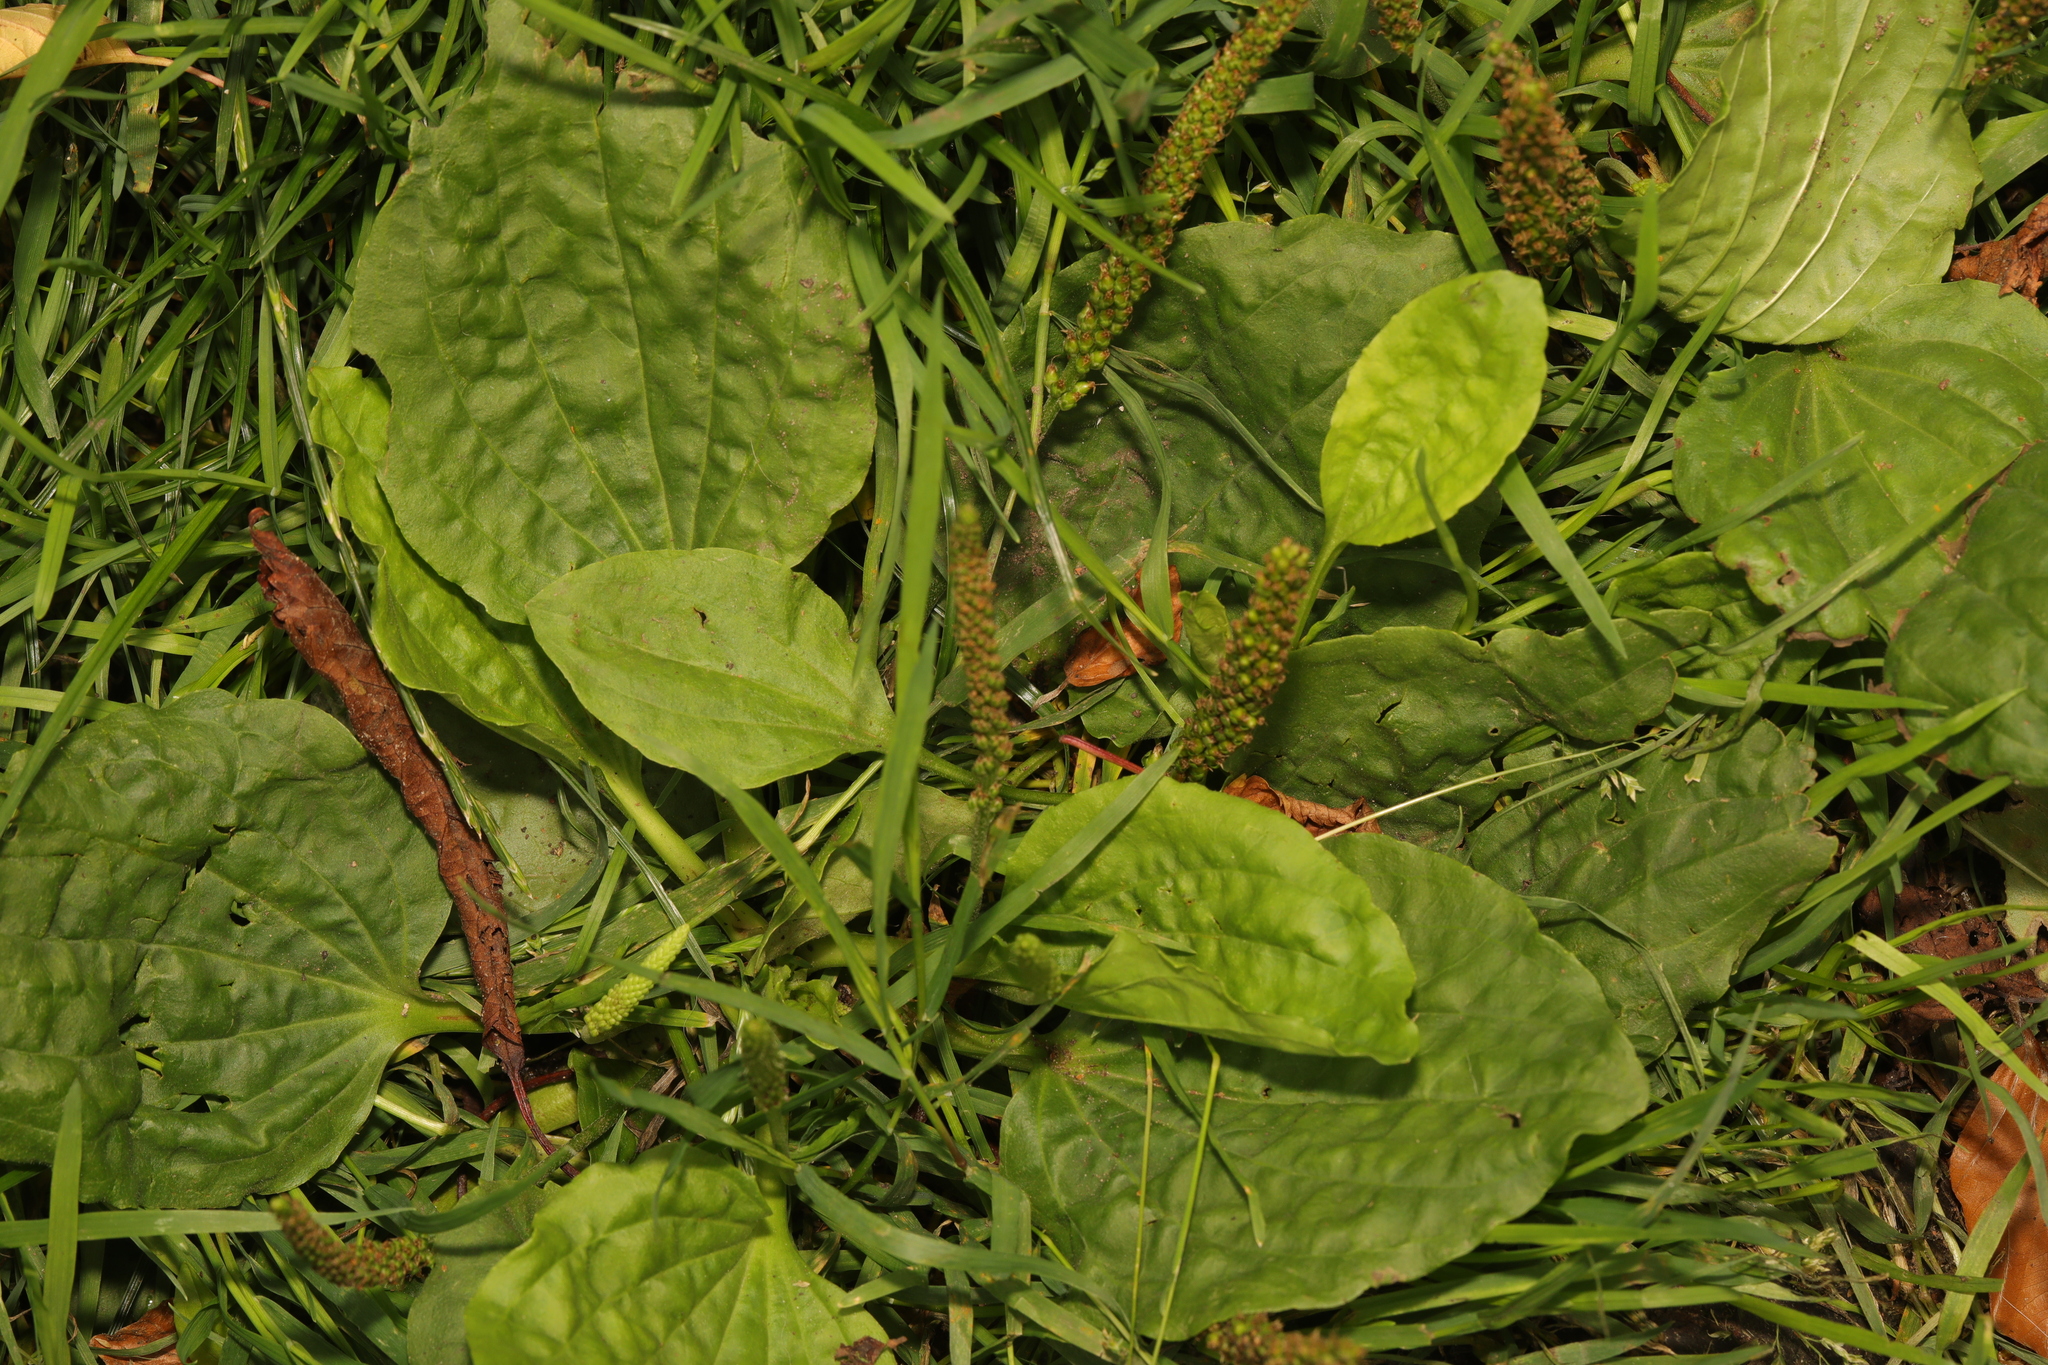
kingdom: Plantae
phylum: Tracheophyta
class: Magnoliopsida
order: Lamiales
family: Plantaginaceae
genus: Plantago
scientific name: Plantago major
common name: Common plantain
